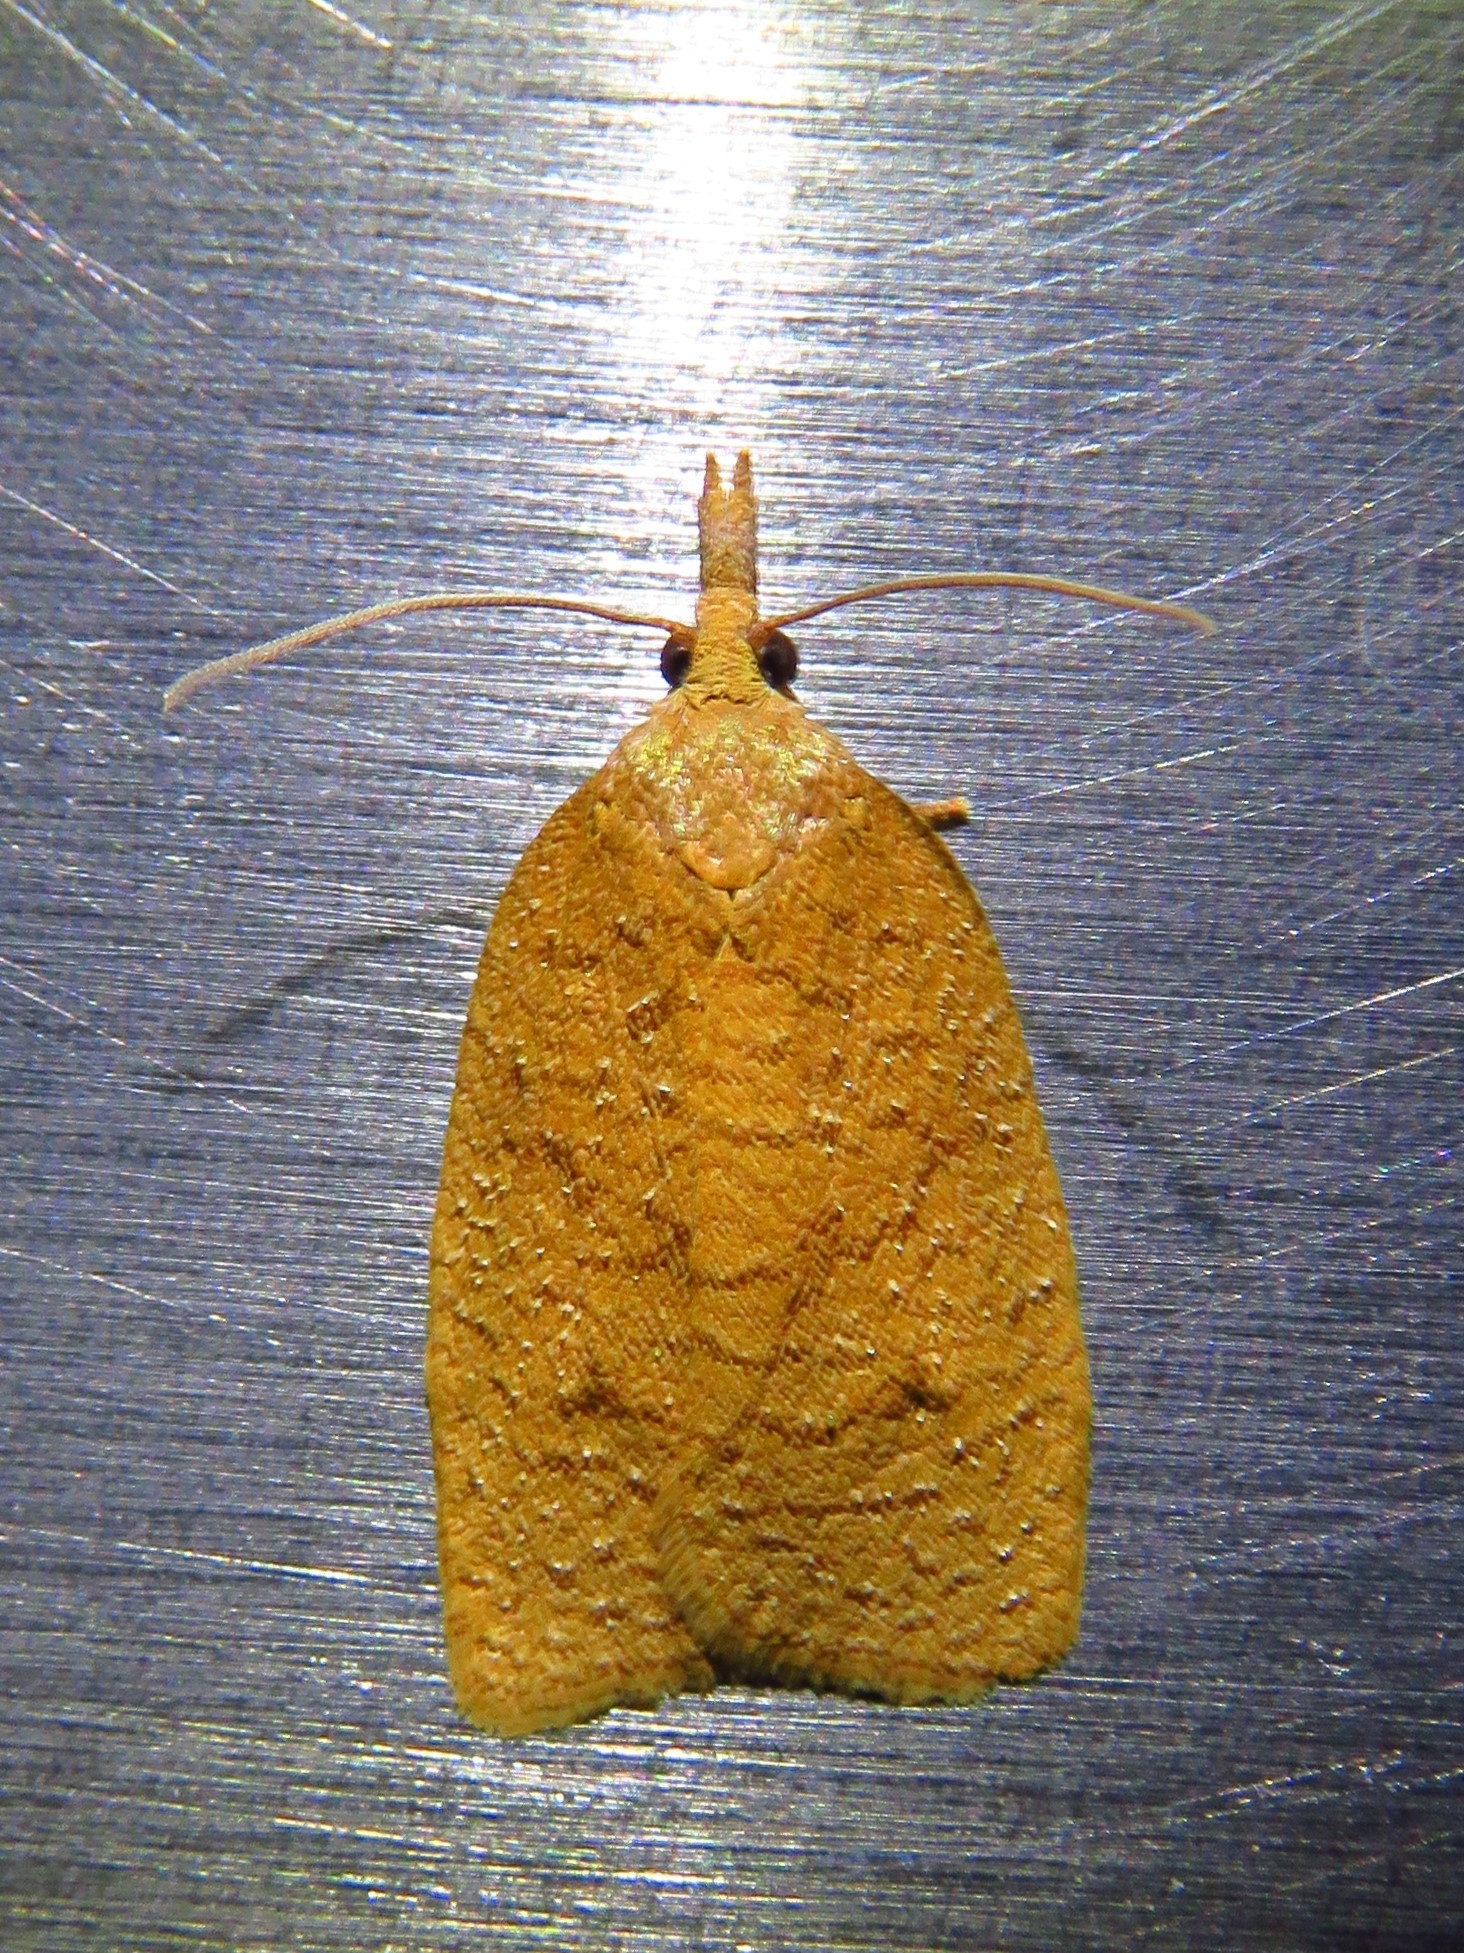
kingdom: Animalia
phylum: Arthropoda
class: Insecta
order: Lepidoptera
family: Tortricidae
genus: Sparganothis
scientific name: Sparganothis distincta
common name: Distinct sparganothis moth
